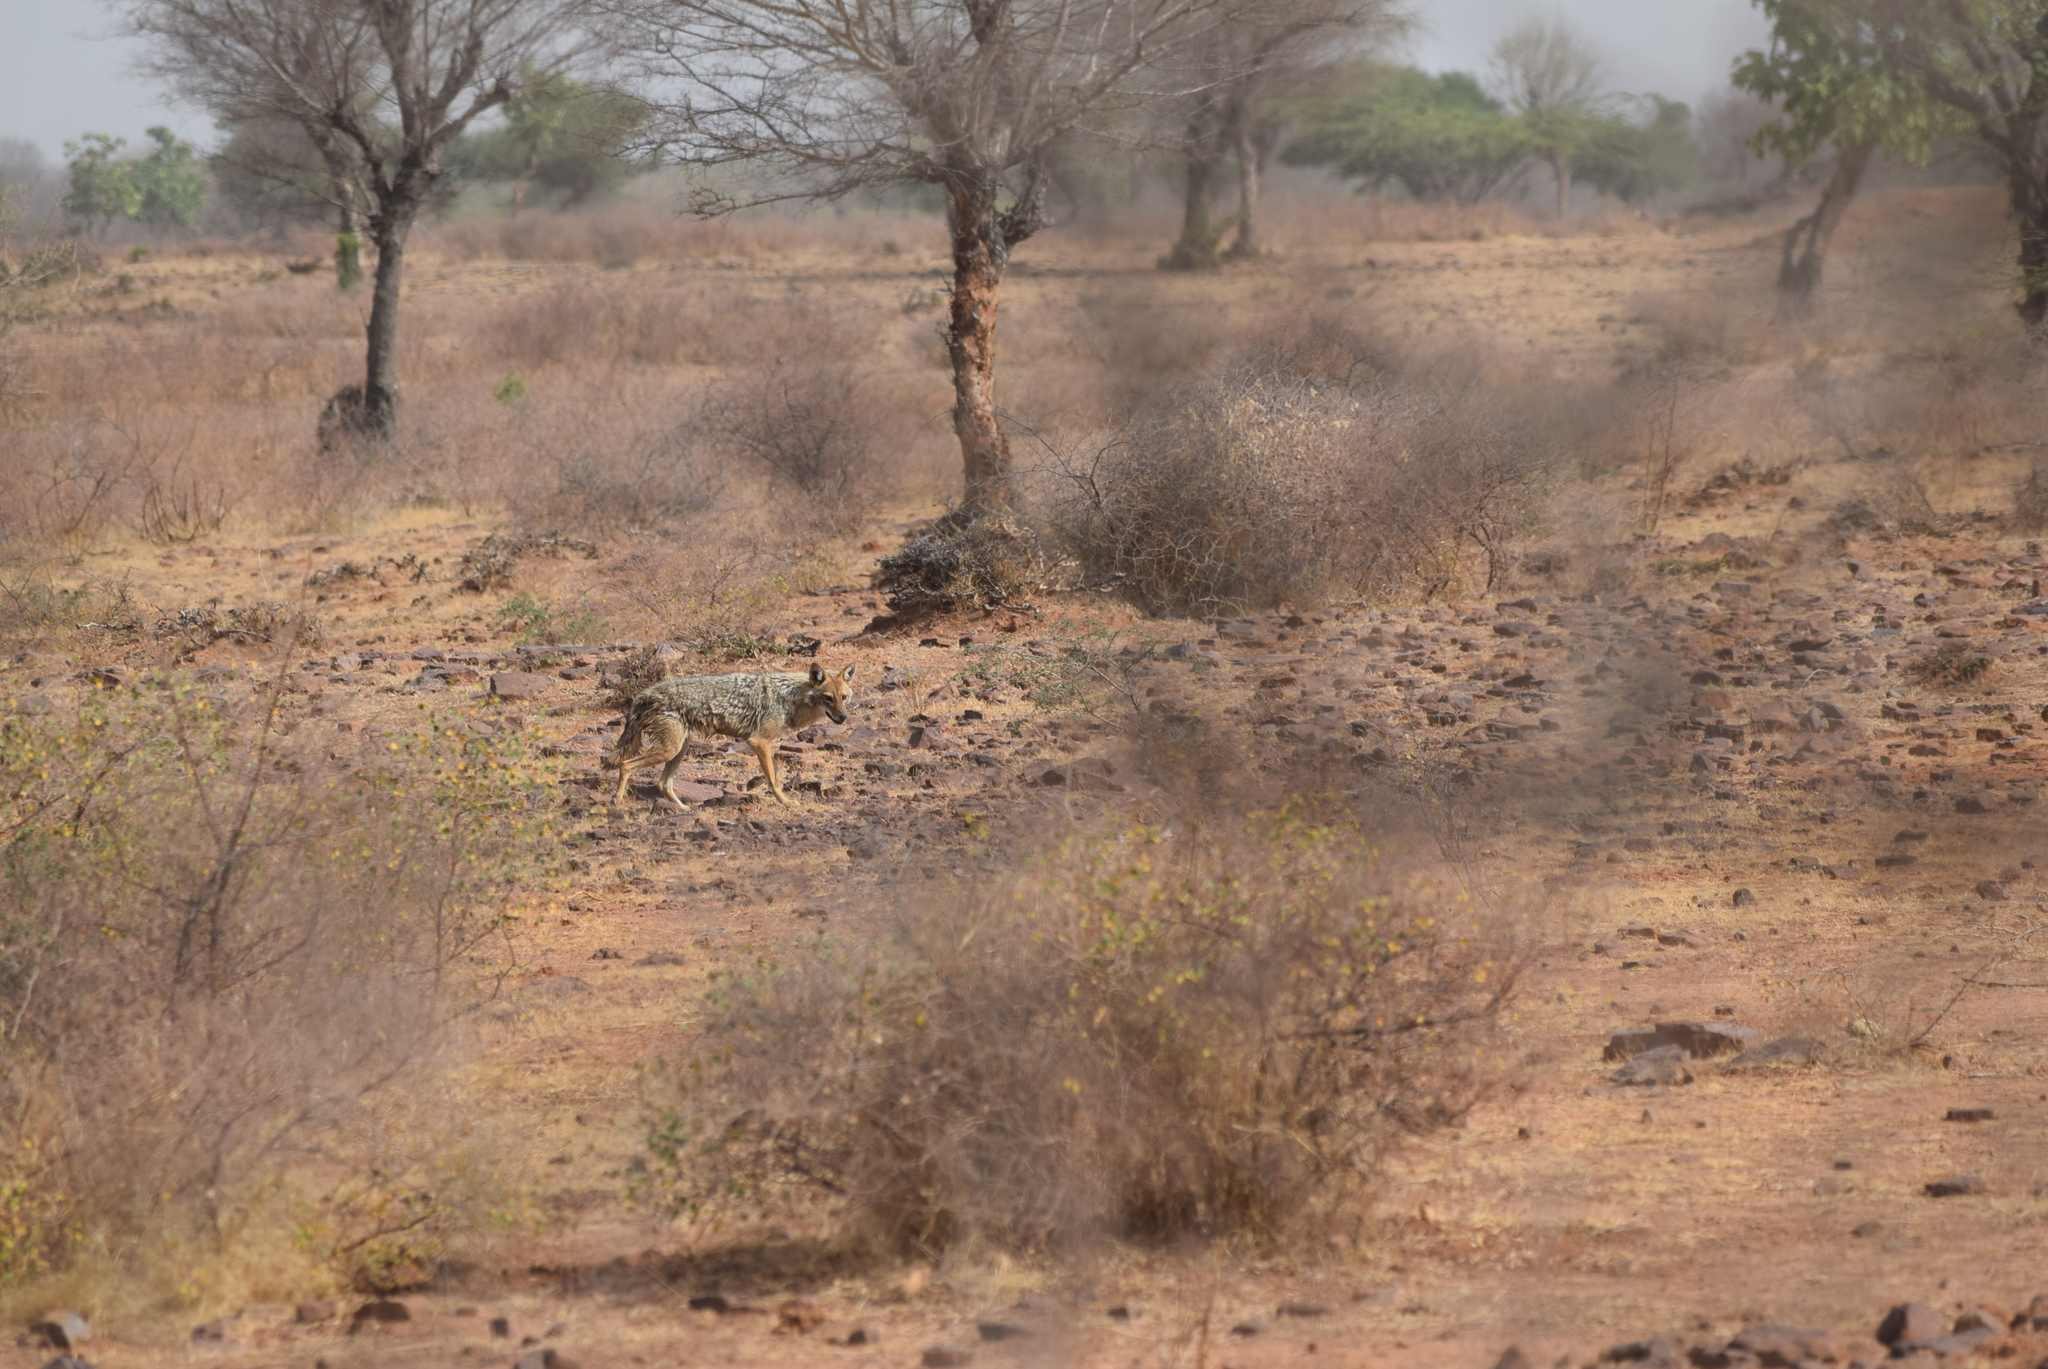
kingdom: Animalia
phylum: Chordata
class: Mammalia
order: Carnivora
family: Canidae
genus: Canis
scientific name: Canis aureus
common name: Golden jackal
